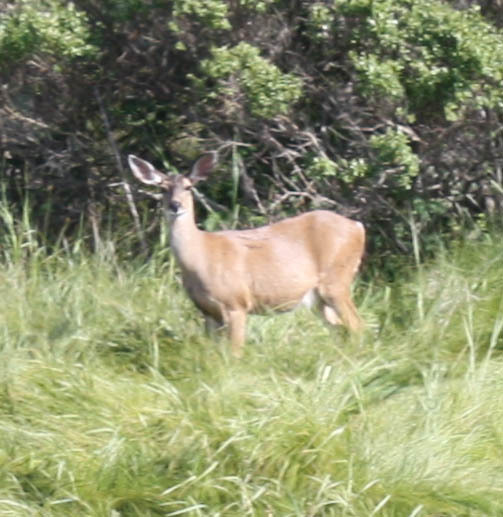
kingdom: Animalia
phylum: Chordata
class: Mammalia
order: Artiodactyla
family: Cervidae
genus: Odocoileus
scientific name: Odocoileus hemionus
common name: Mule deer
